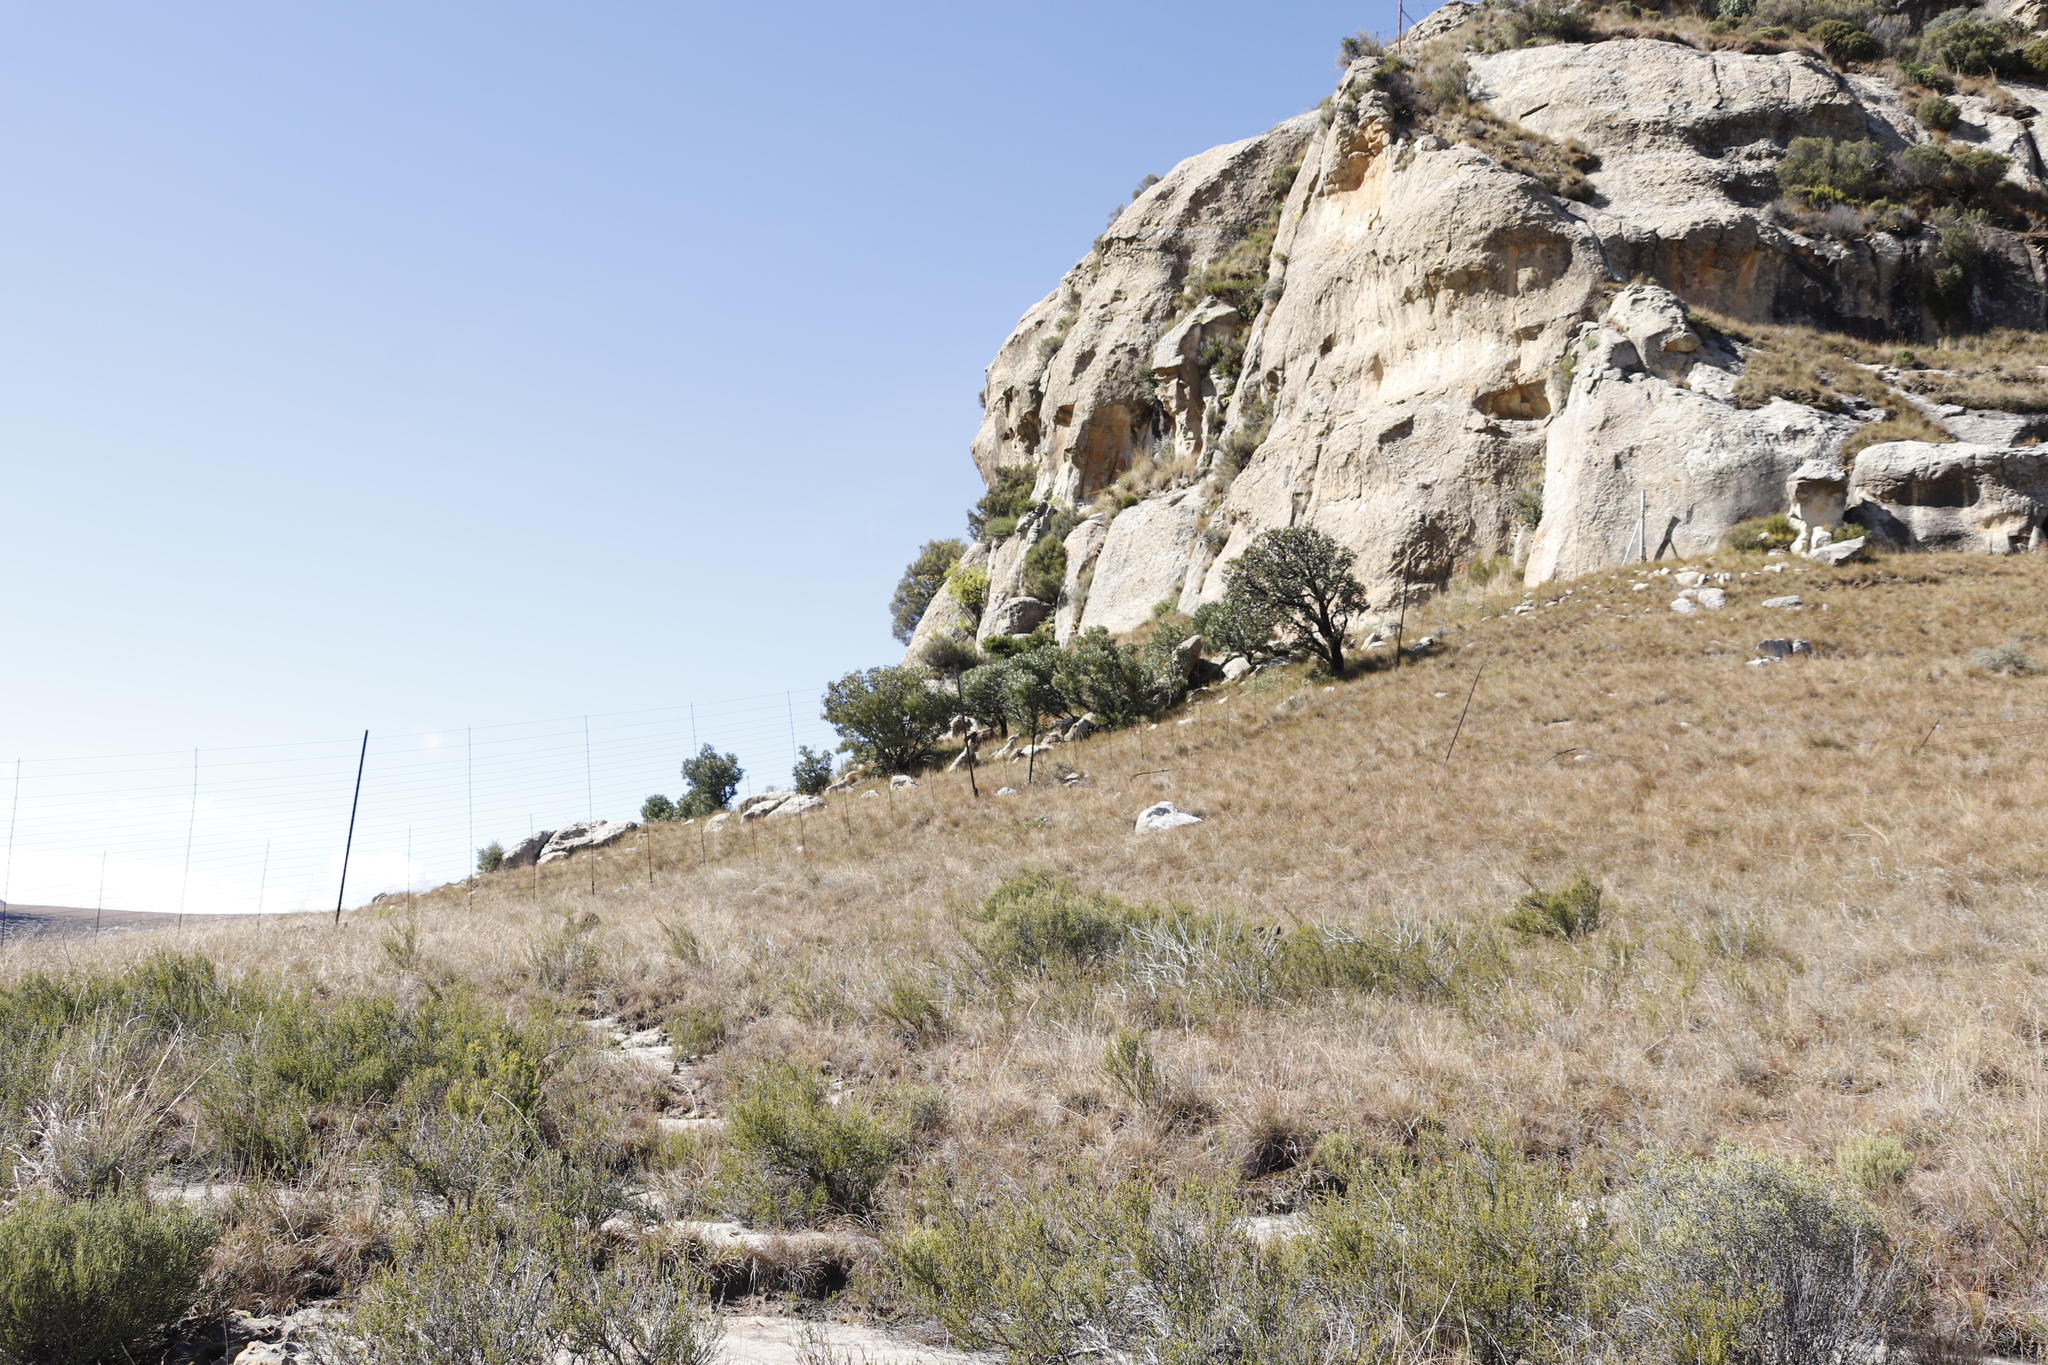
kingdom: Plantae
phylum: Tracheophyta
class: Magnoliopsida
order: Proteales
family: Proteaceae
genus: Protea
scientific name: Protea caffra
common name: Common sugarbush
